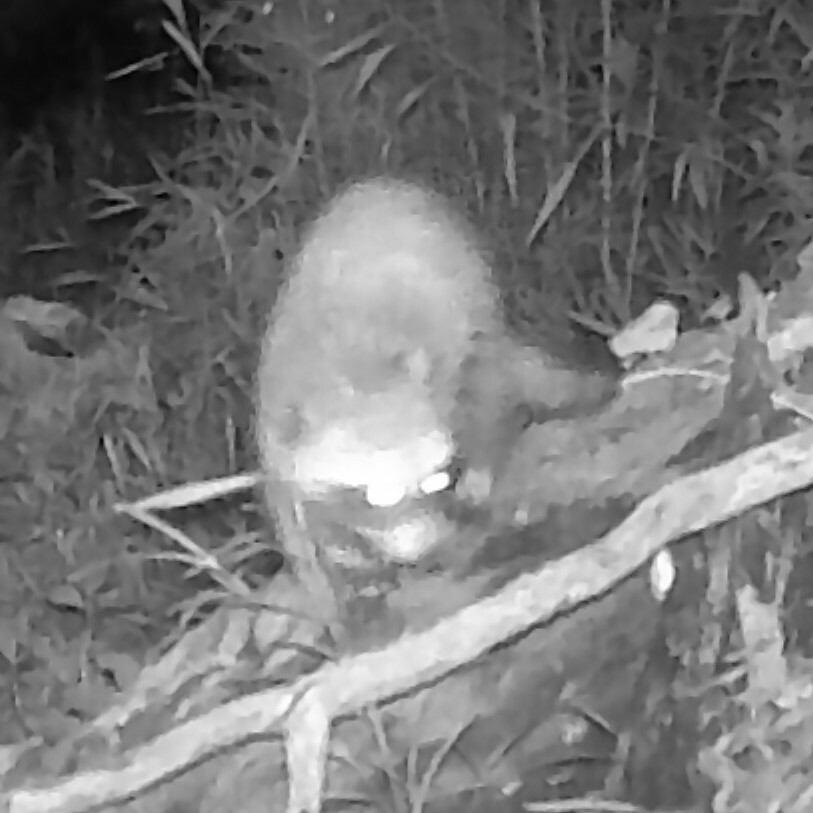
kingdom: Animalia
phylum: Chordata
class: Mammalia
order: Carnivora
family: Procyonidae
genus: Procyon
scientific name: Procyon lotor
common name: Raccoon
